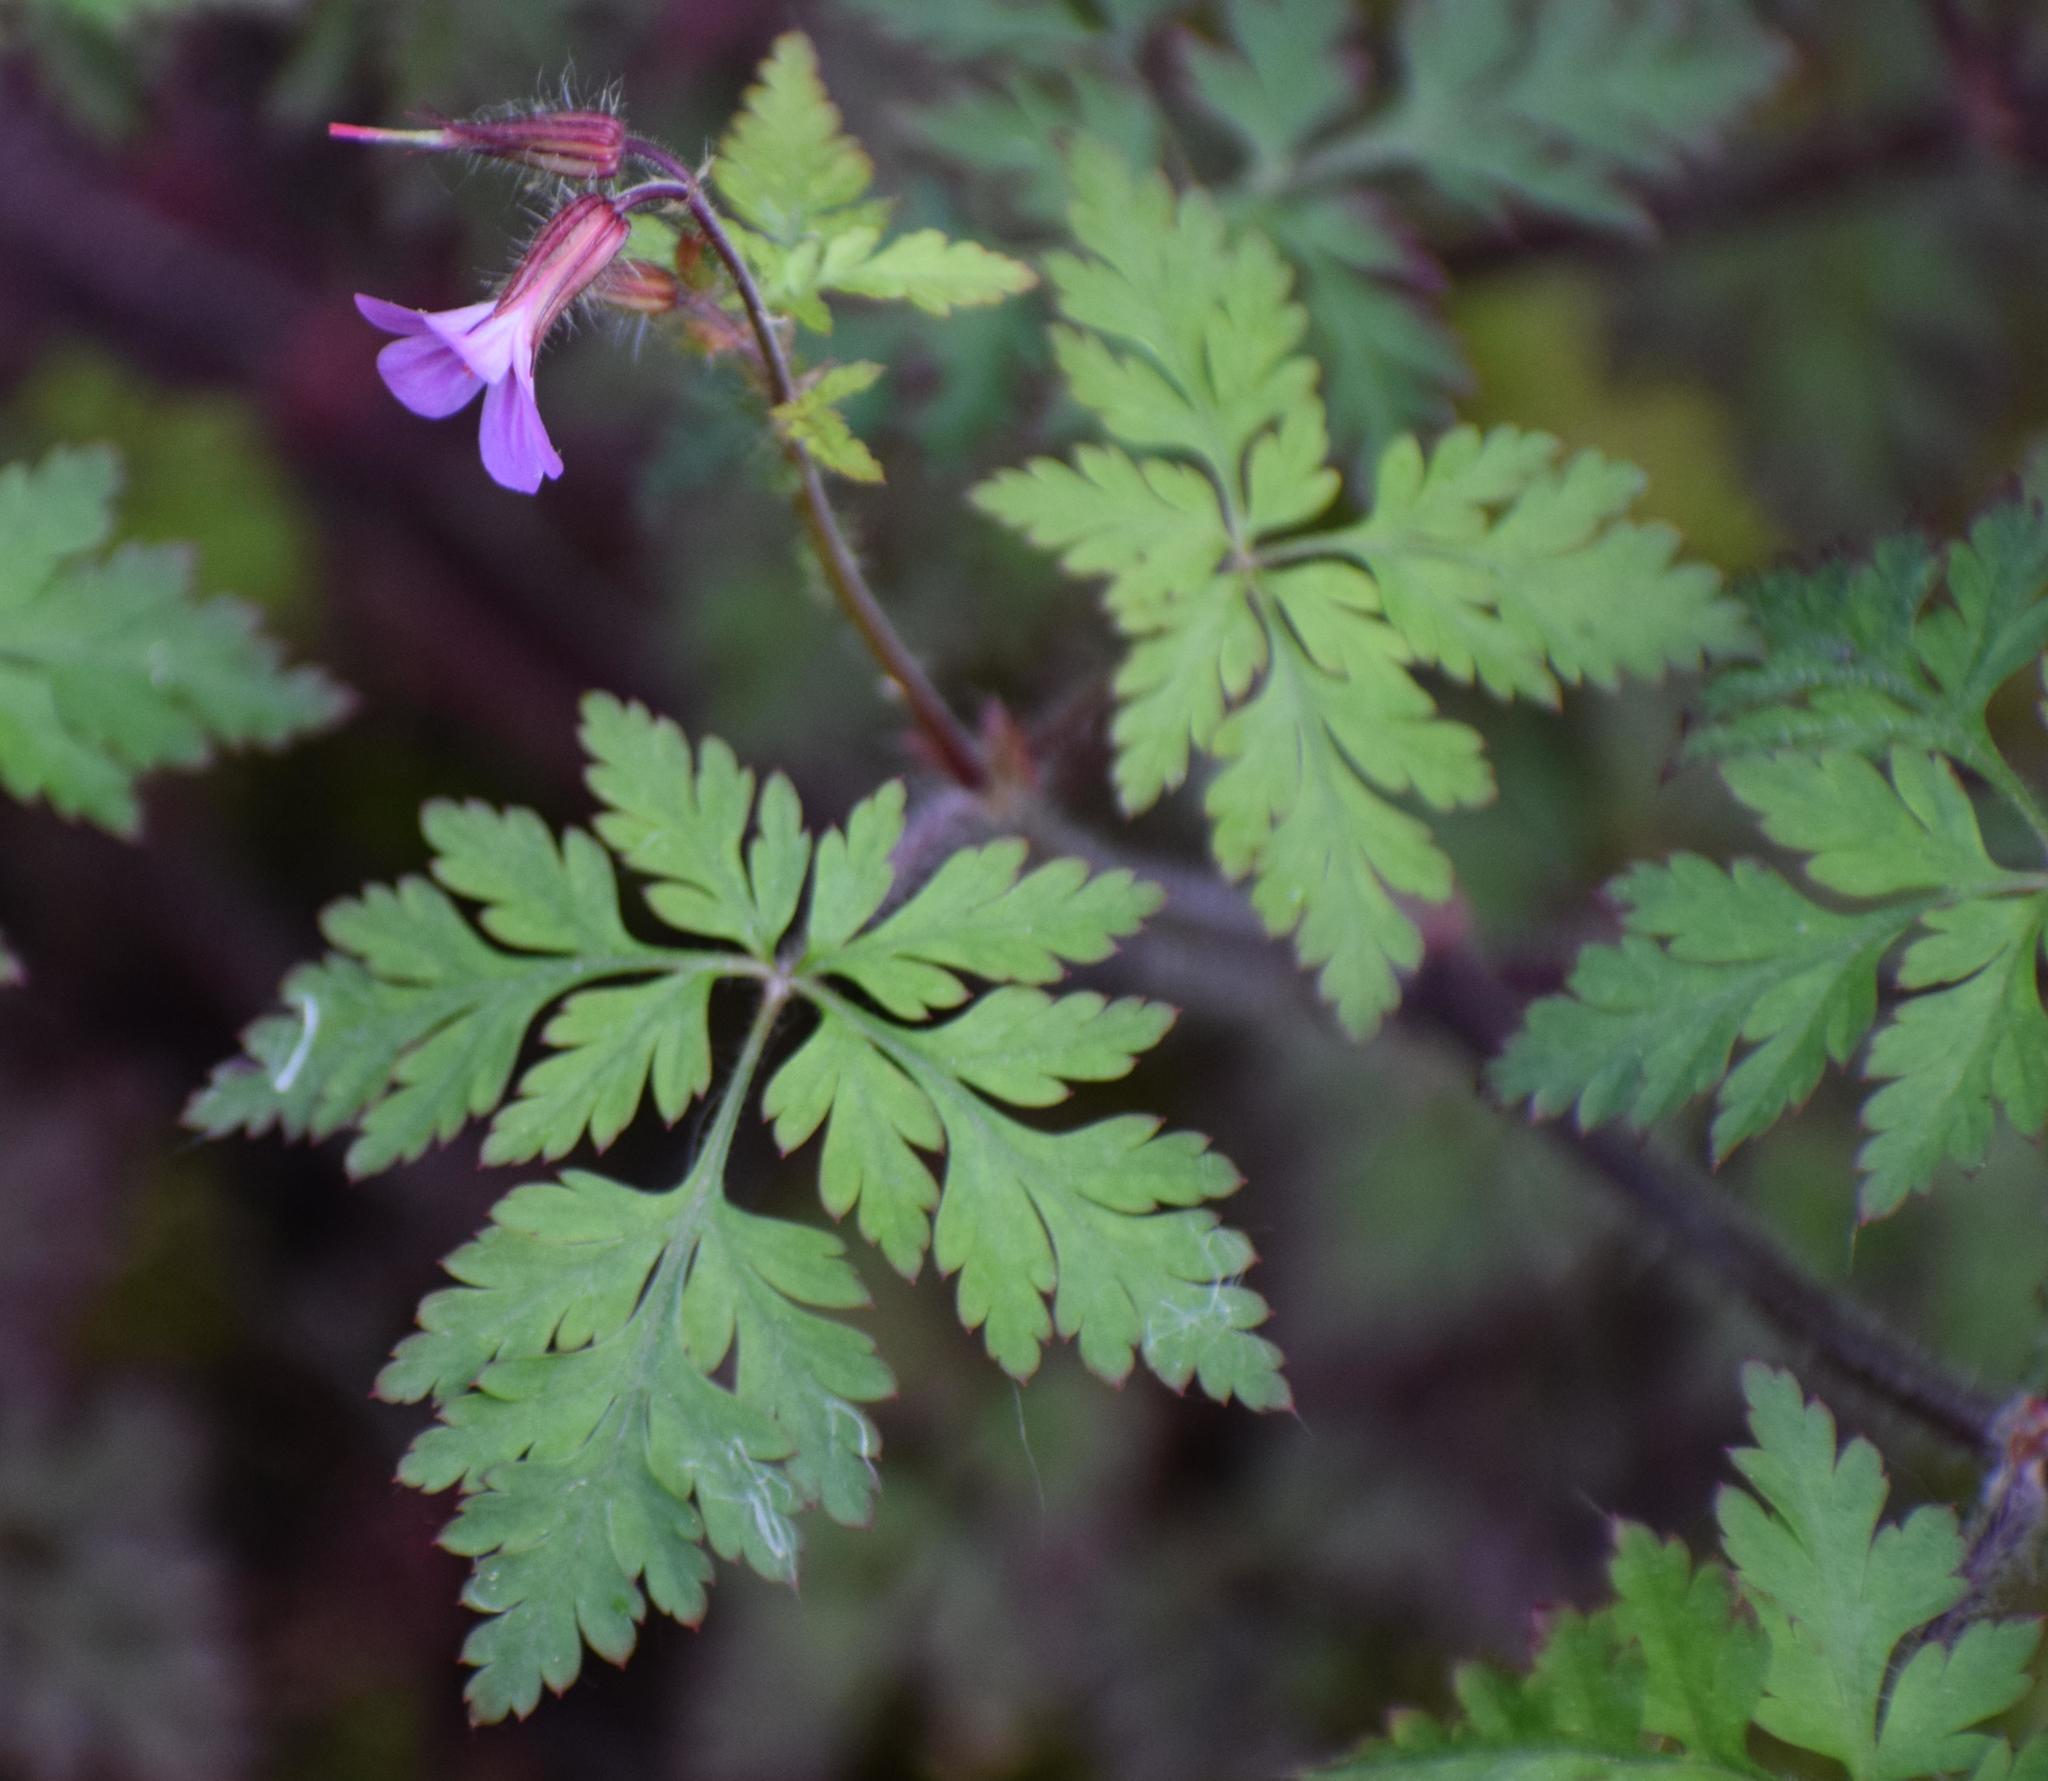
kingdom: Plantae
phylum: Tracheophyta
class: Magnoliopsida
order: Geraniales
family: Geraniaceae
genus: Geranium
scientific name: Geranium robertianum
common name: Herb-robert
